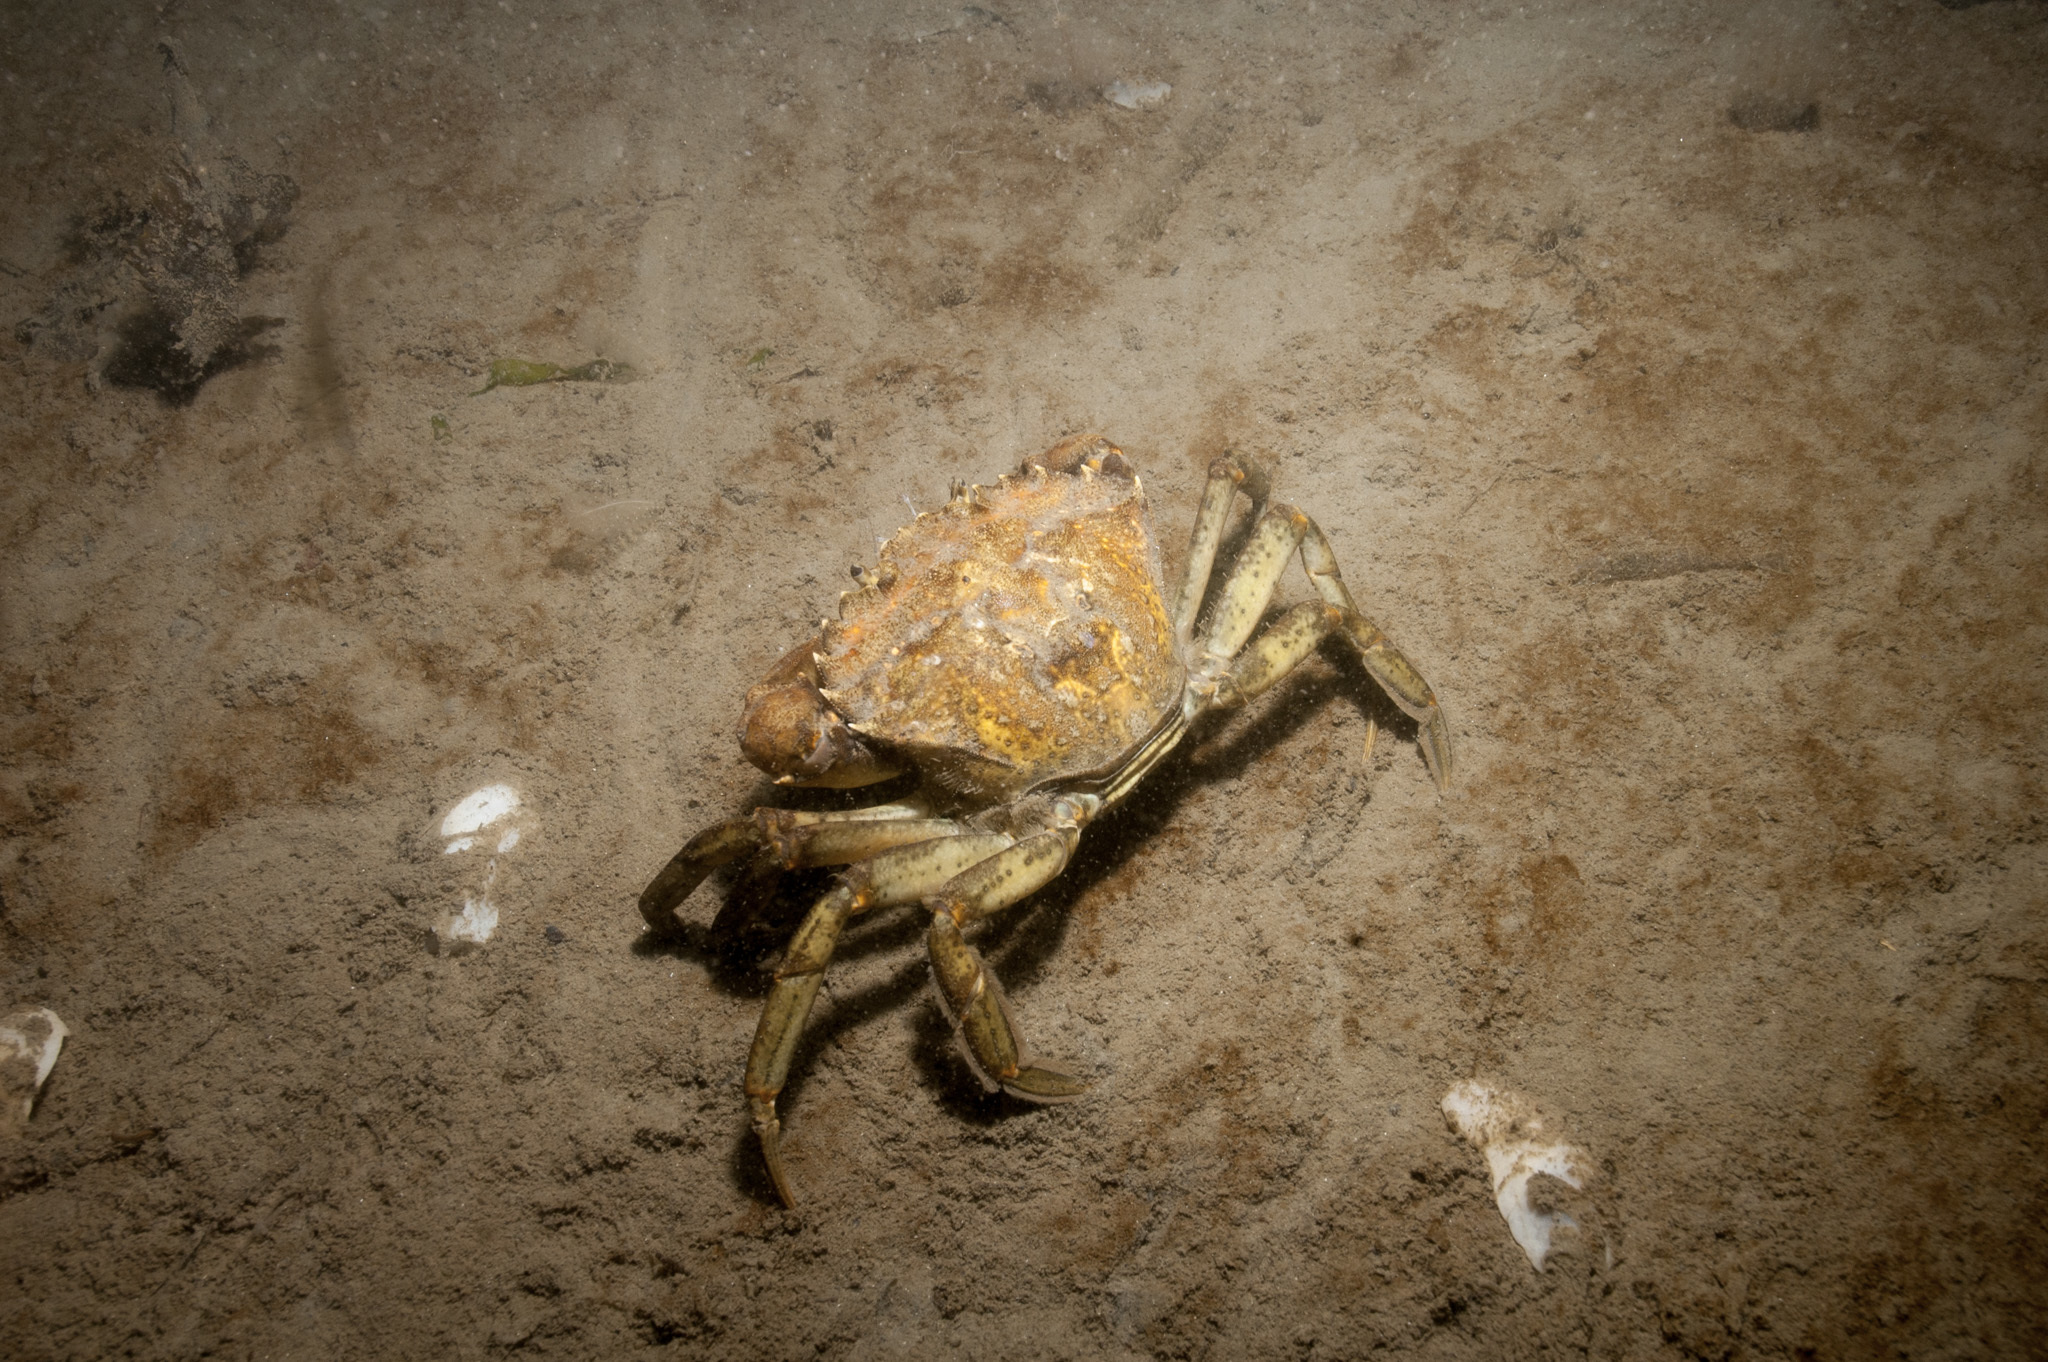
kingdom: Animalia
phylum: Arthropoda
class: Malacostraca
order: Decapoda
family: Carcinidae
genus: Carcinus
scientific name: Carcinus maenas
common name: European green crab
